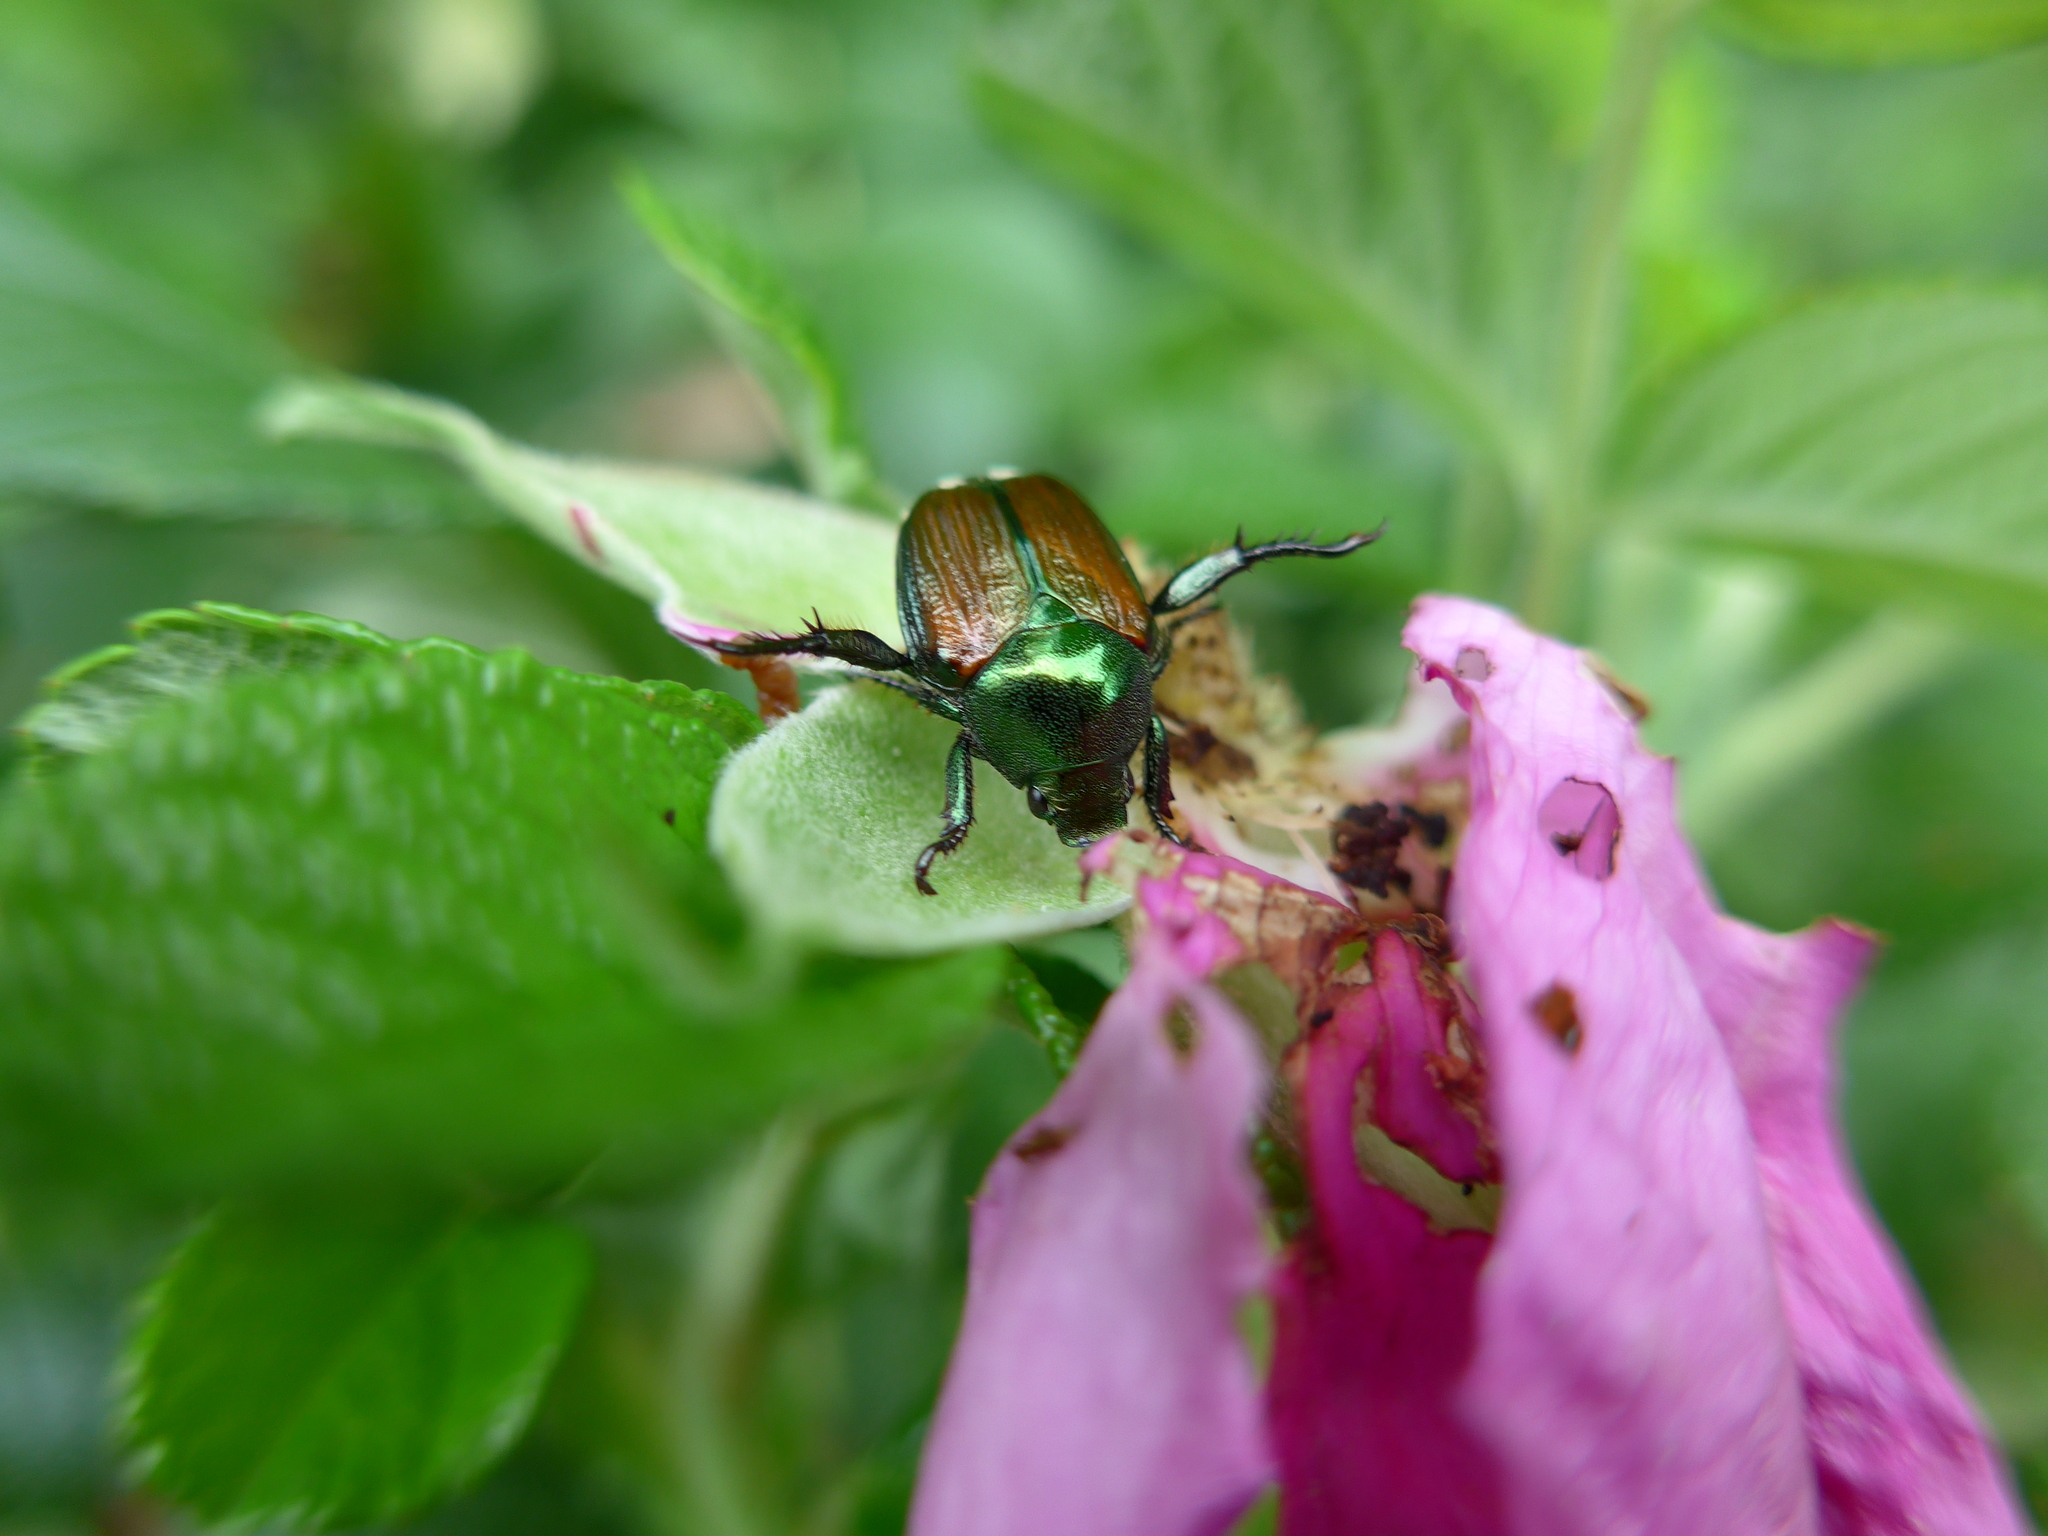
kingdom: Animalia
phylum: Arthropoda
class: Insecta
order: Coleoptera
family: Scarabaeidae
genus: Popillia
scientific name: Popillia japonica
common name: Japanese beetle
